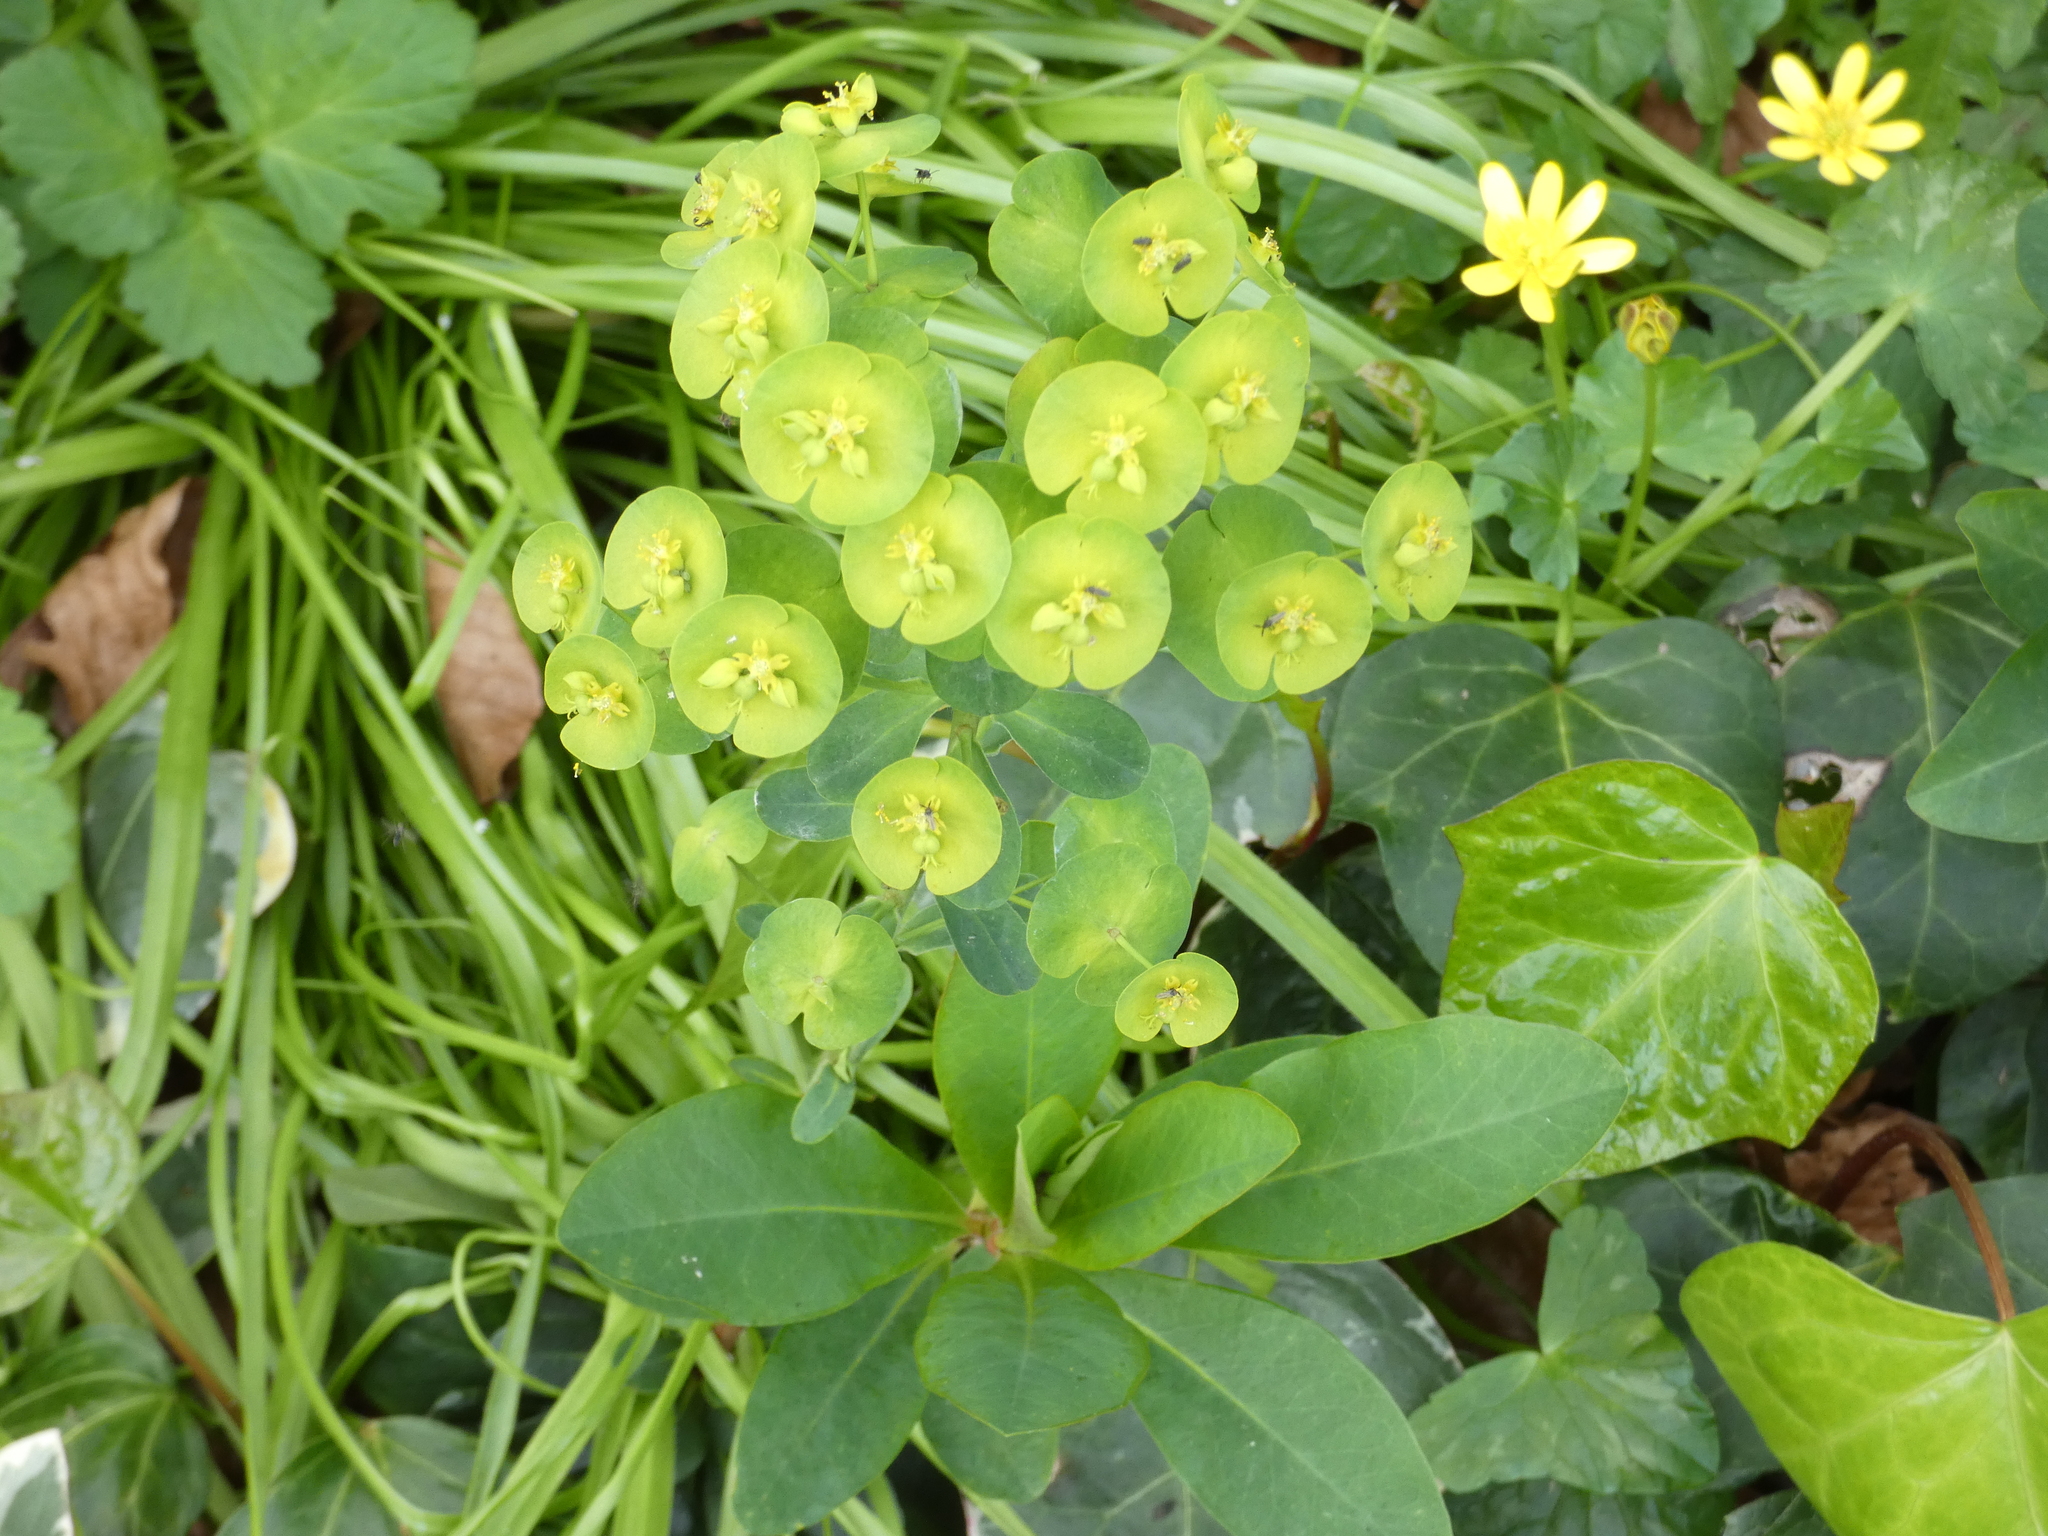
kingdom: Plantae
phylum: Tracheophyta
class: Magnoliopsida
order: Malpighiales
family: Euphorbiaceae
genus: Euphorbia
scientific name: Euphorbia amygdaloides
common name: Wood spurge
